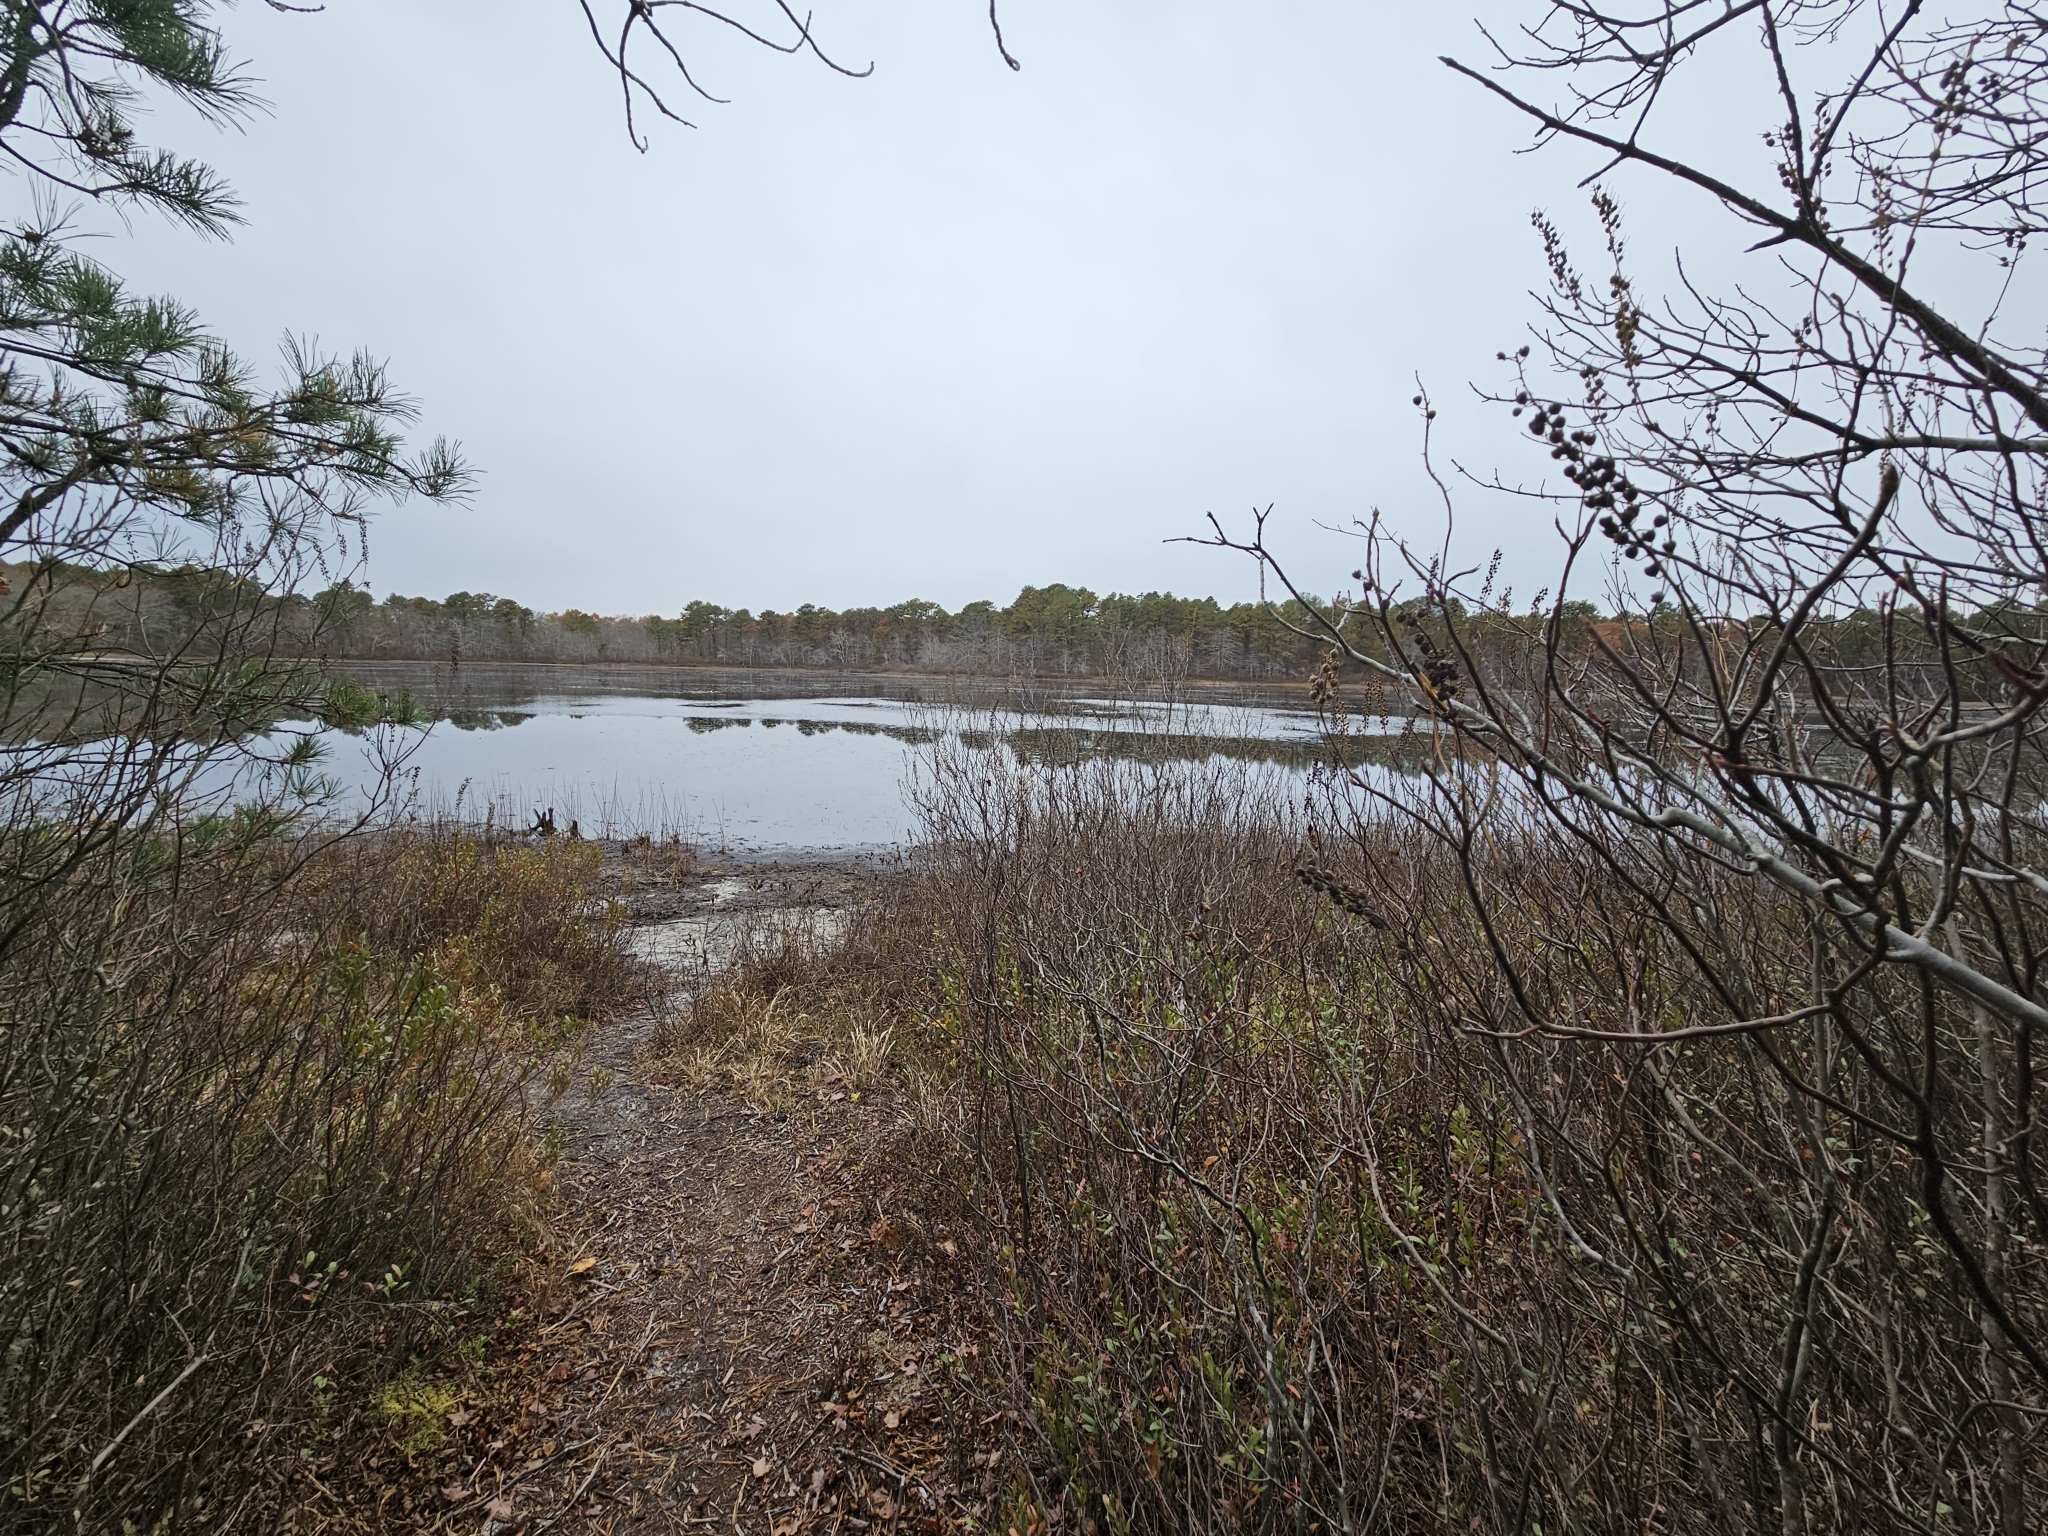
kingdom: Plantae
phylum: Tracheophyta
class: Magnoliopsida
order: Ericales
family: Clethraceae
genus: Clethra
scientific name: Clethra alnifolia
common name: Sweet pepperbush
